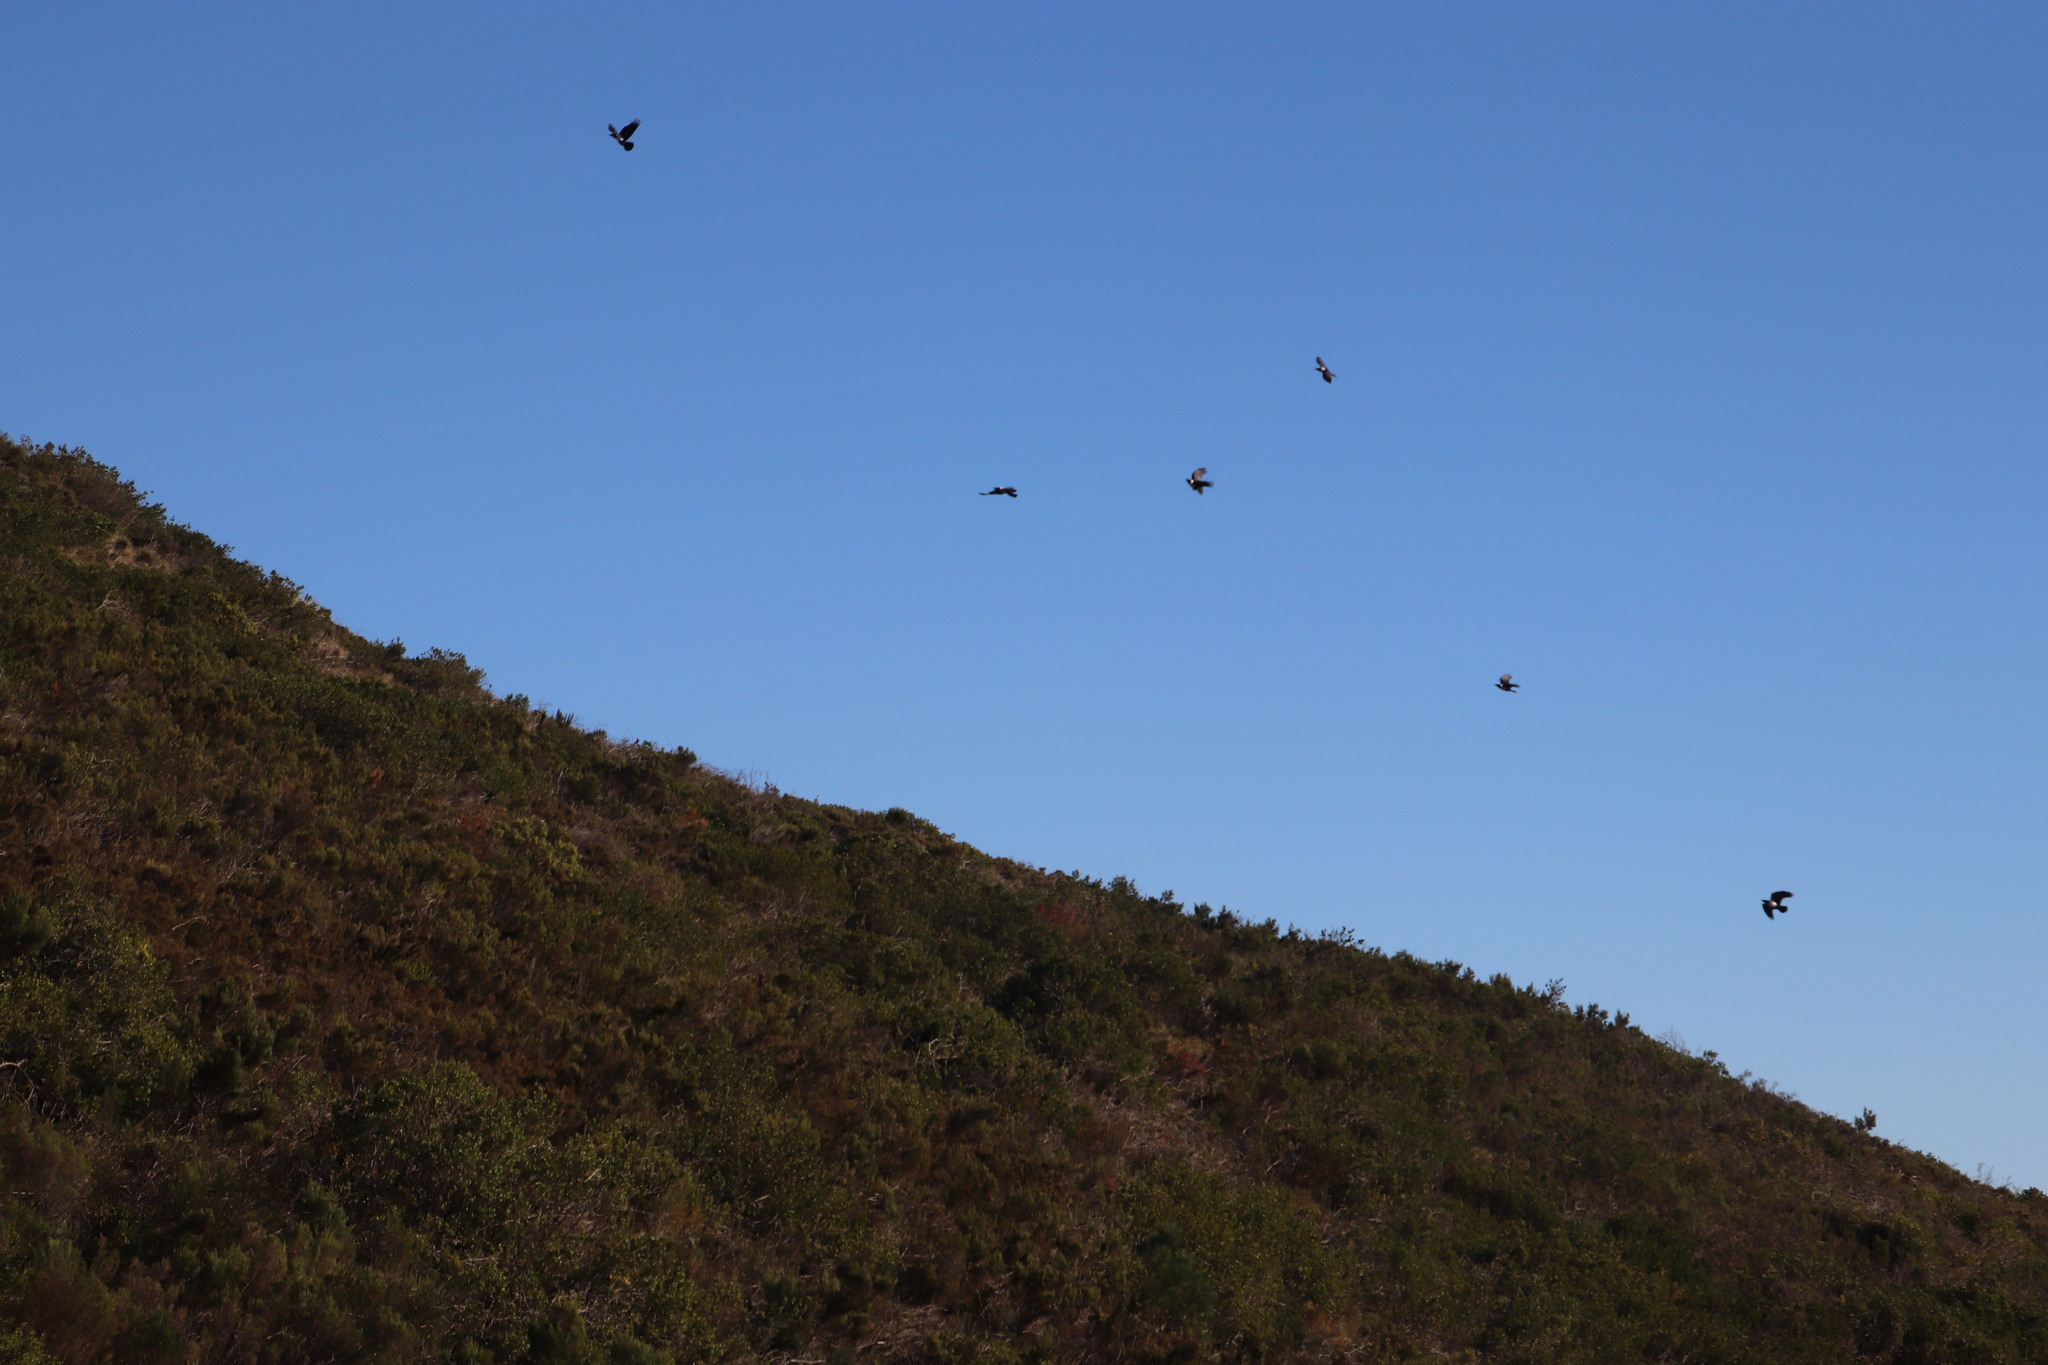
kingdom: Animalia
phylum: Chordata
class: Aves
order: Passeriformes
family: Corvidae
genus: Corvus
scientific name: Corvus albus
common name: Pied crow
